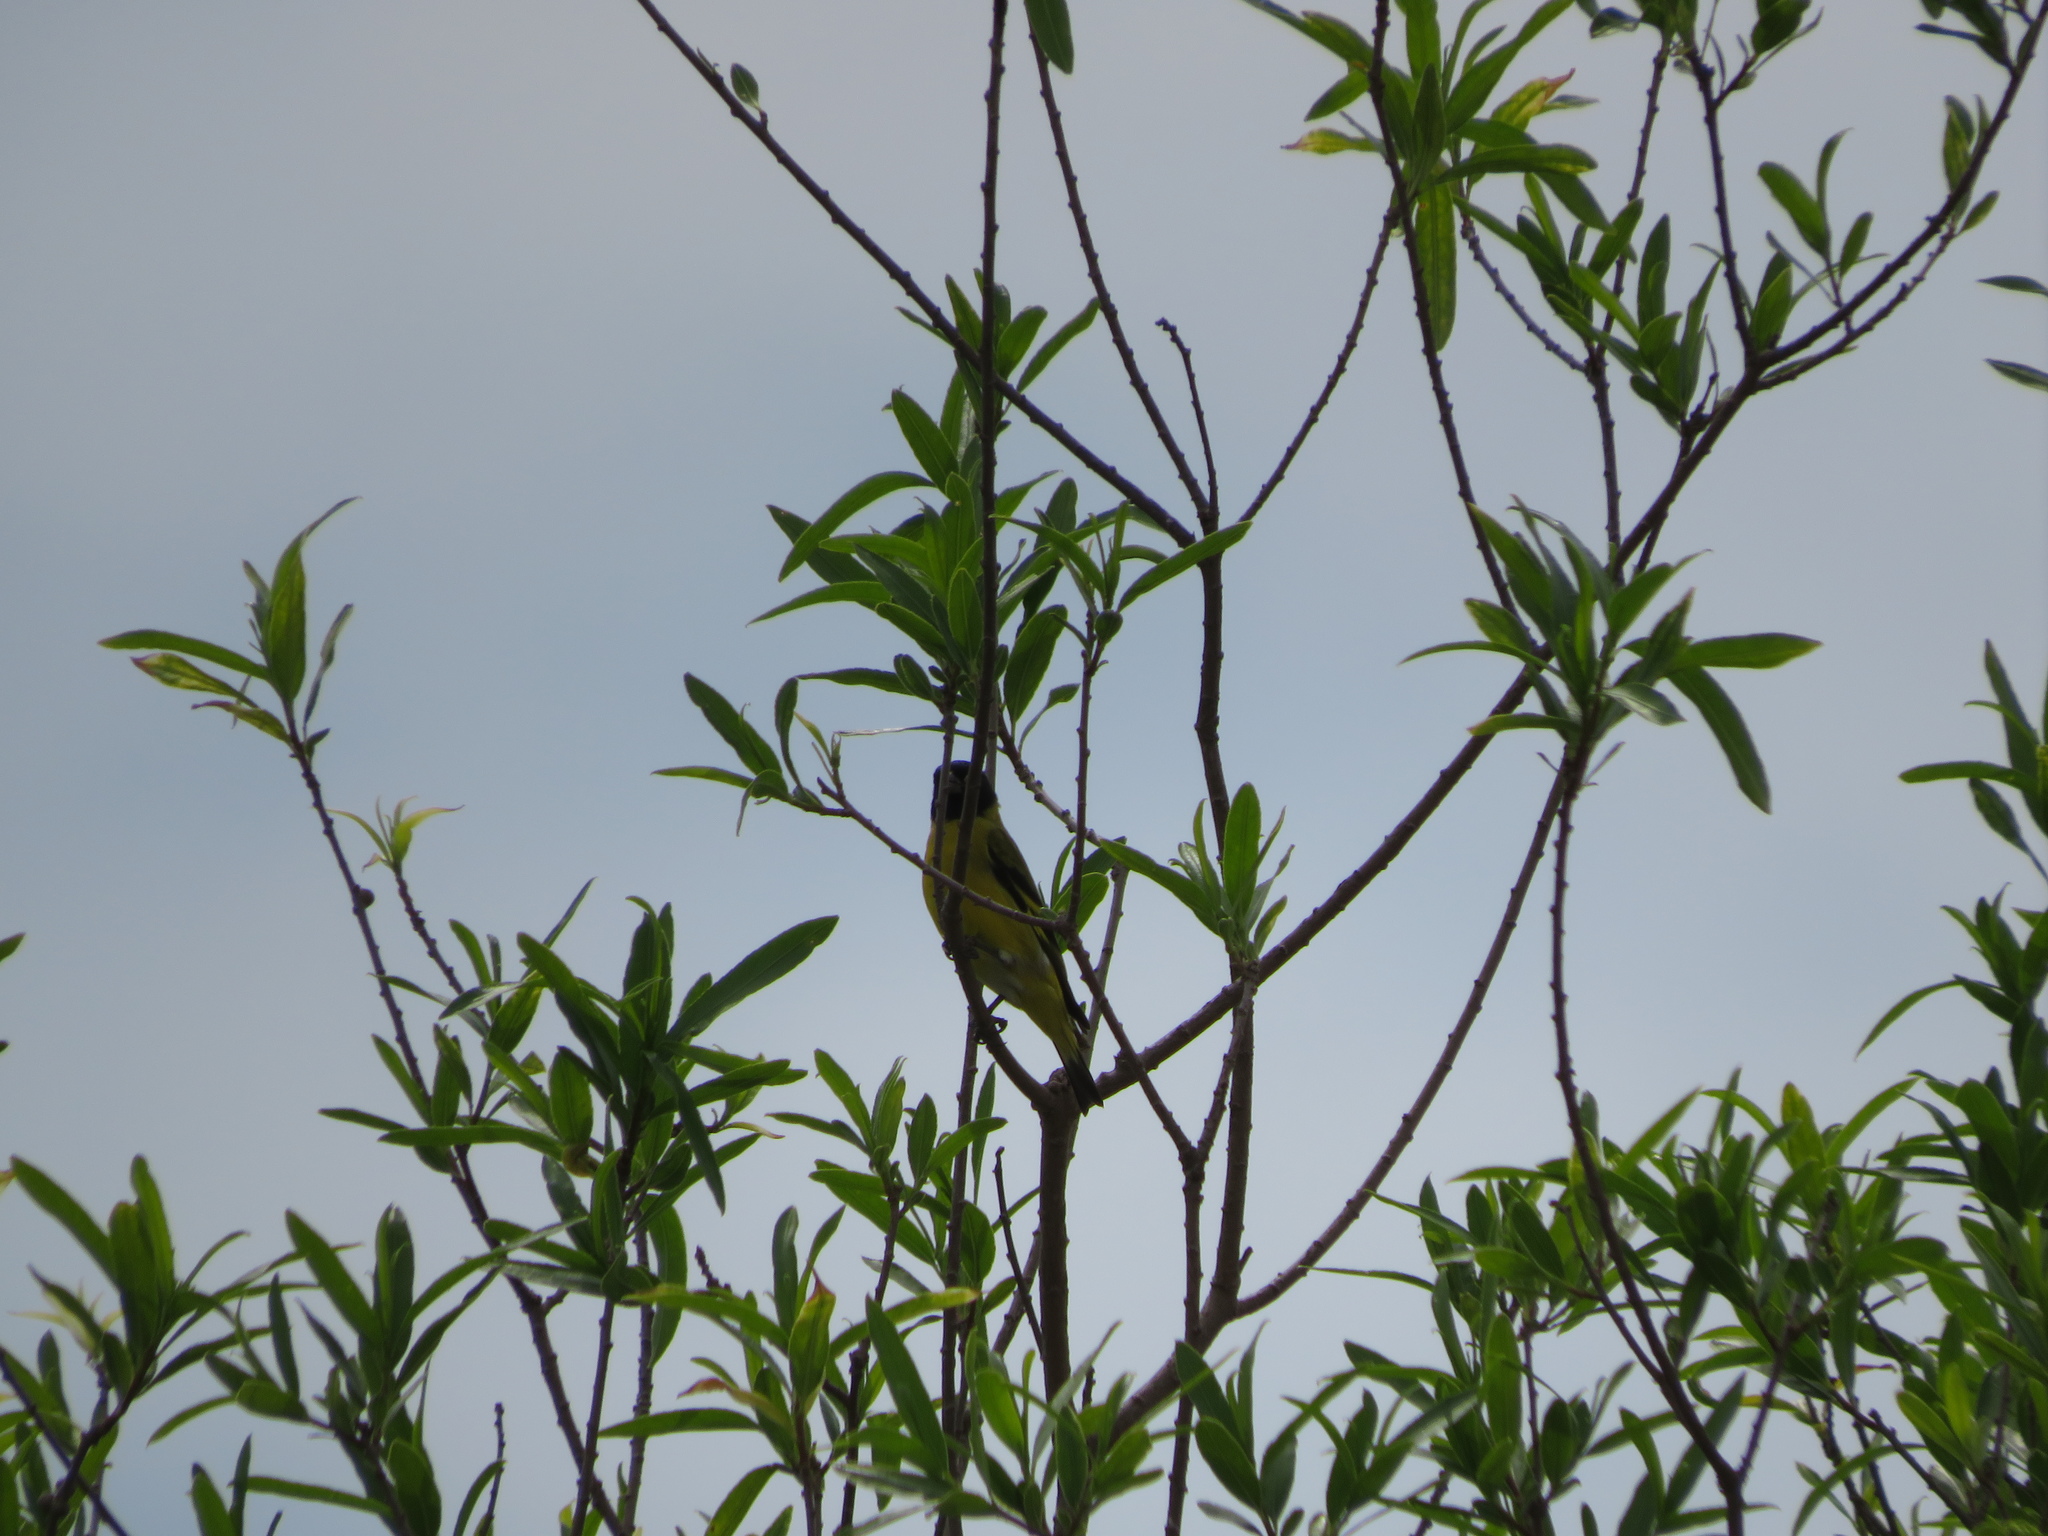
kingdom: Animalia
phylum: Chordata
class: Aves
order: Passeriformes
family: Fringillidae
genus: Spinus
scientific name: Spinus magellanicus
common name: Hooded siskin
